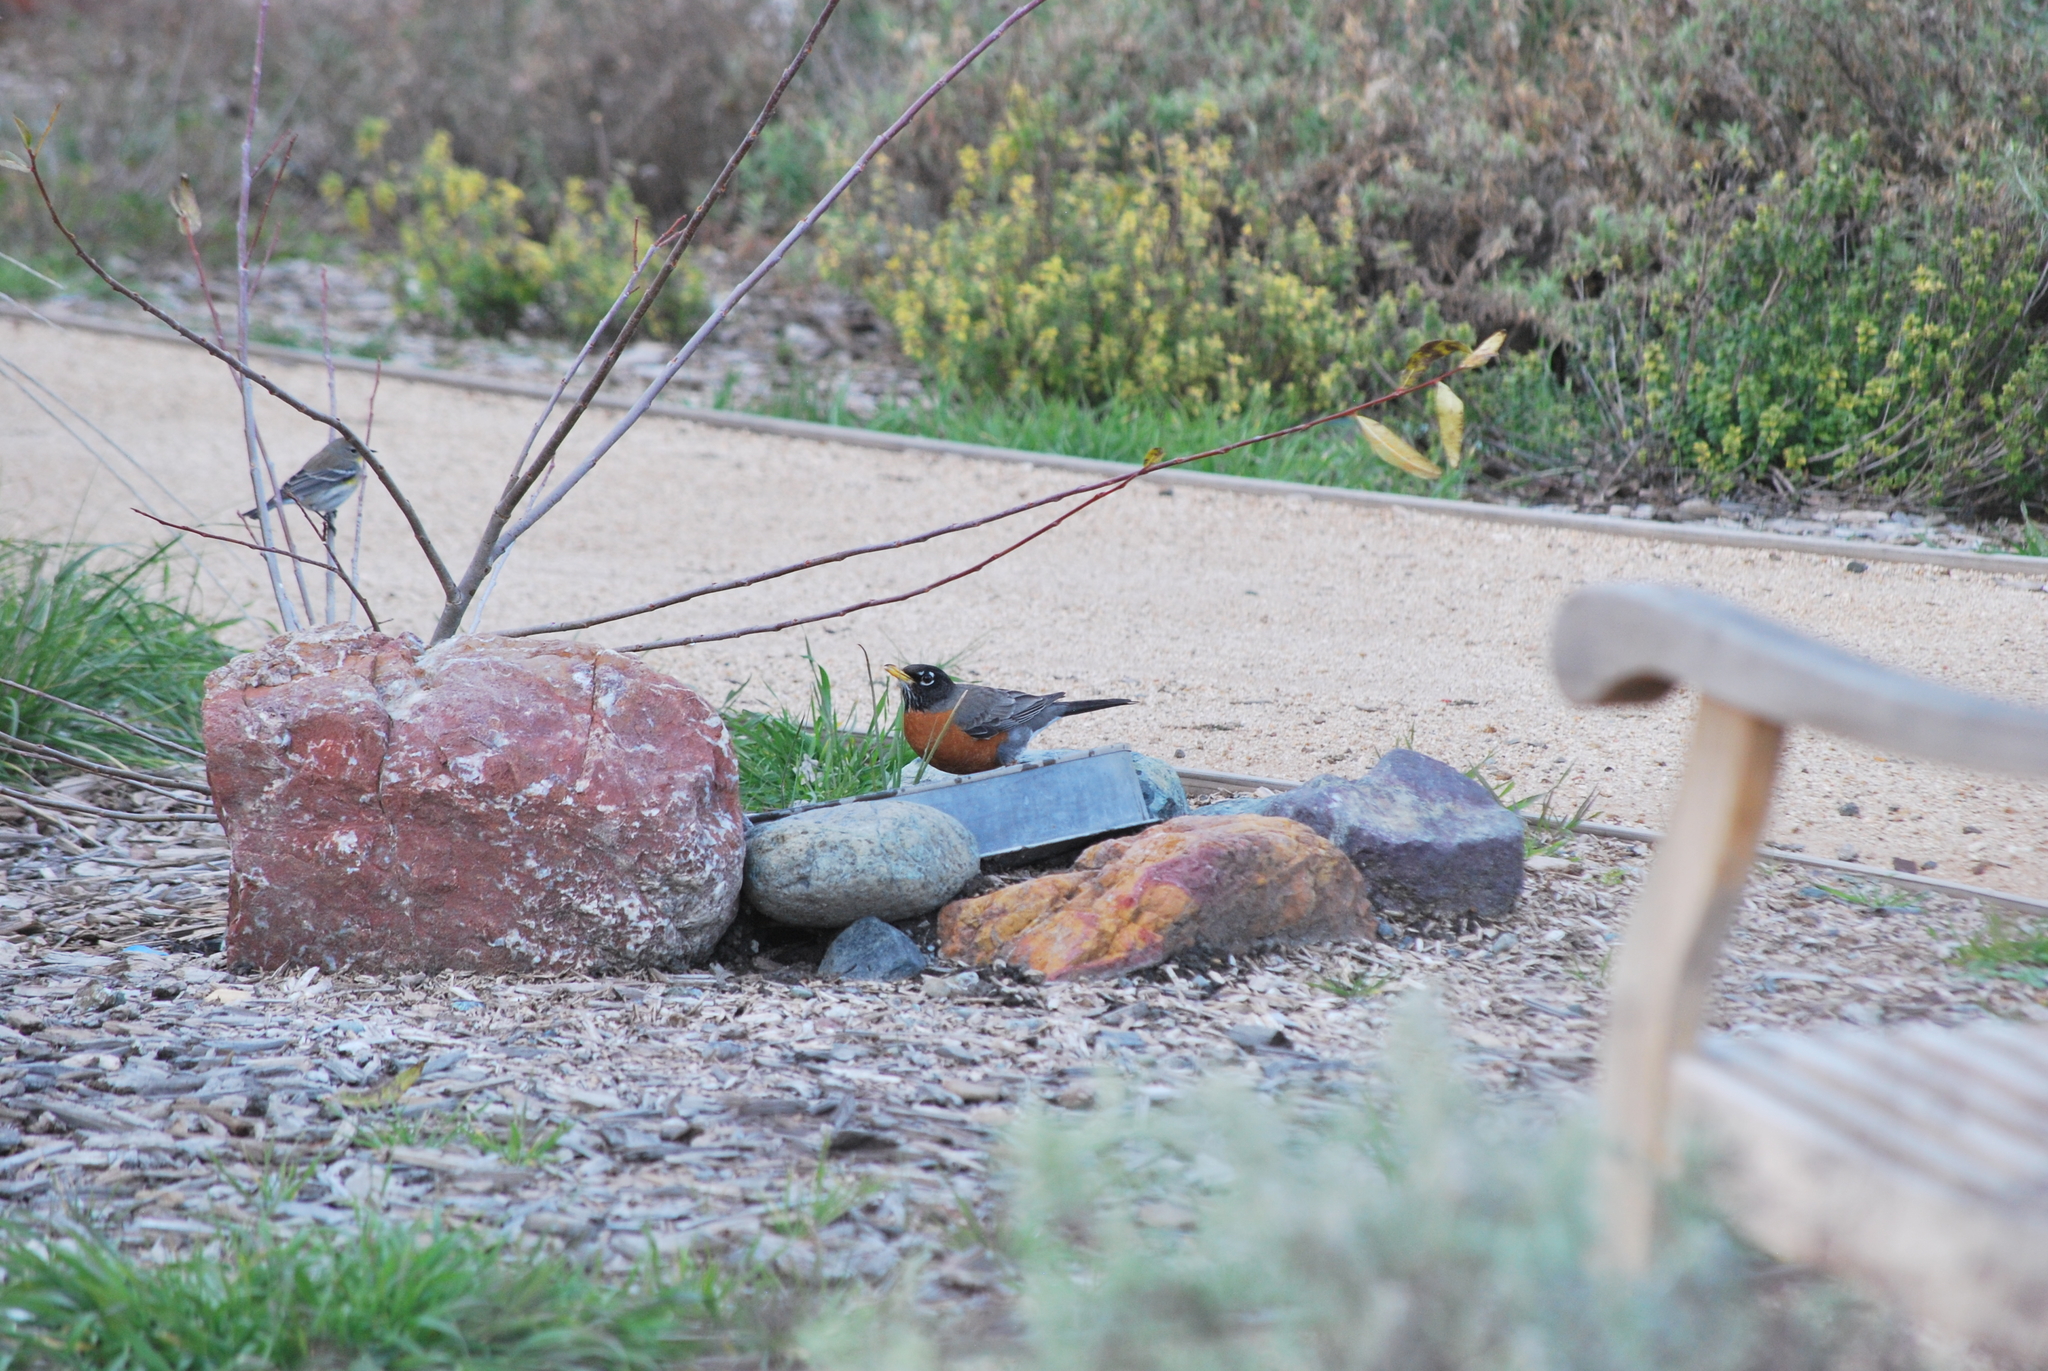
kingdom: Animalia
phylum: Chordata
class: Aves
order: Passeriformes
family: Turdidae
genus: Turdus
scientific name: Turdus migratorius
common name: American robin
